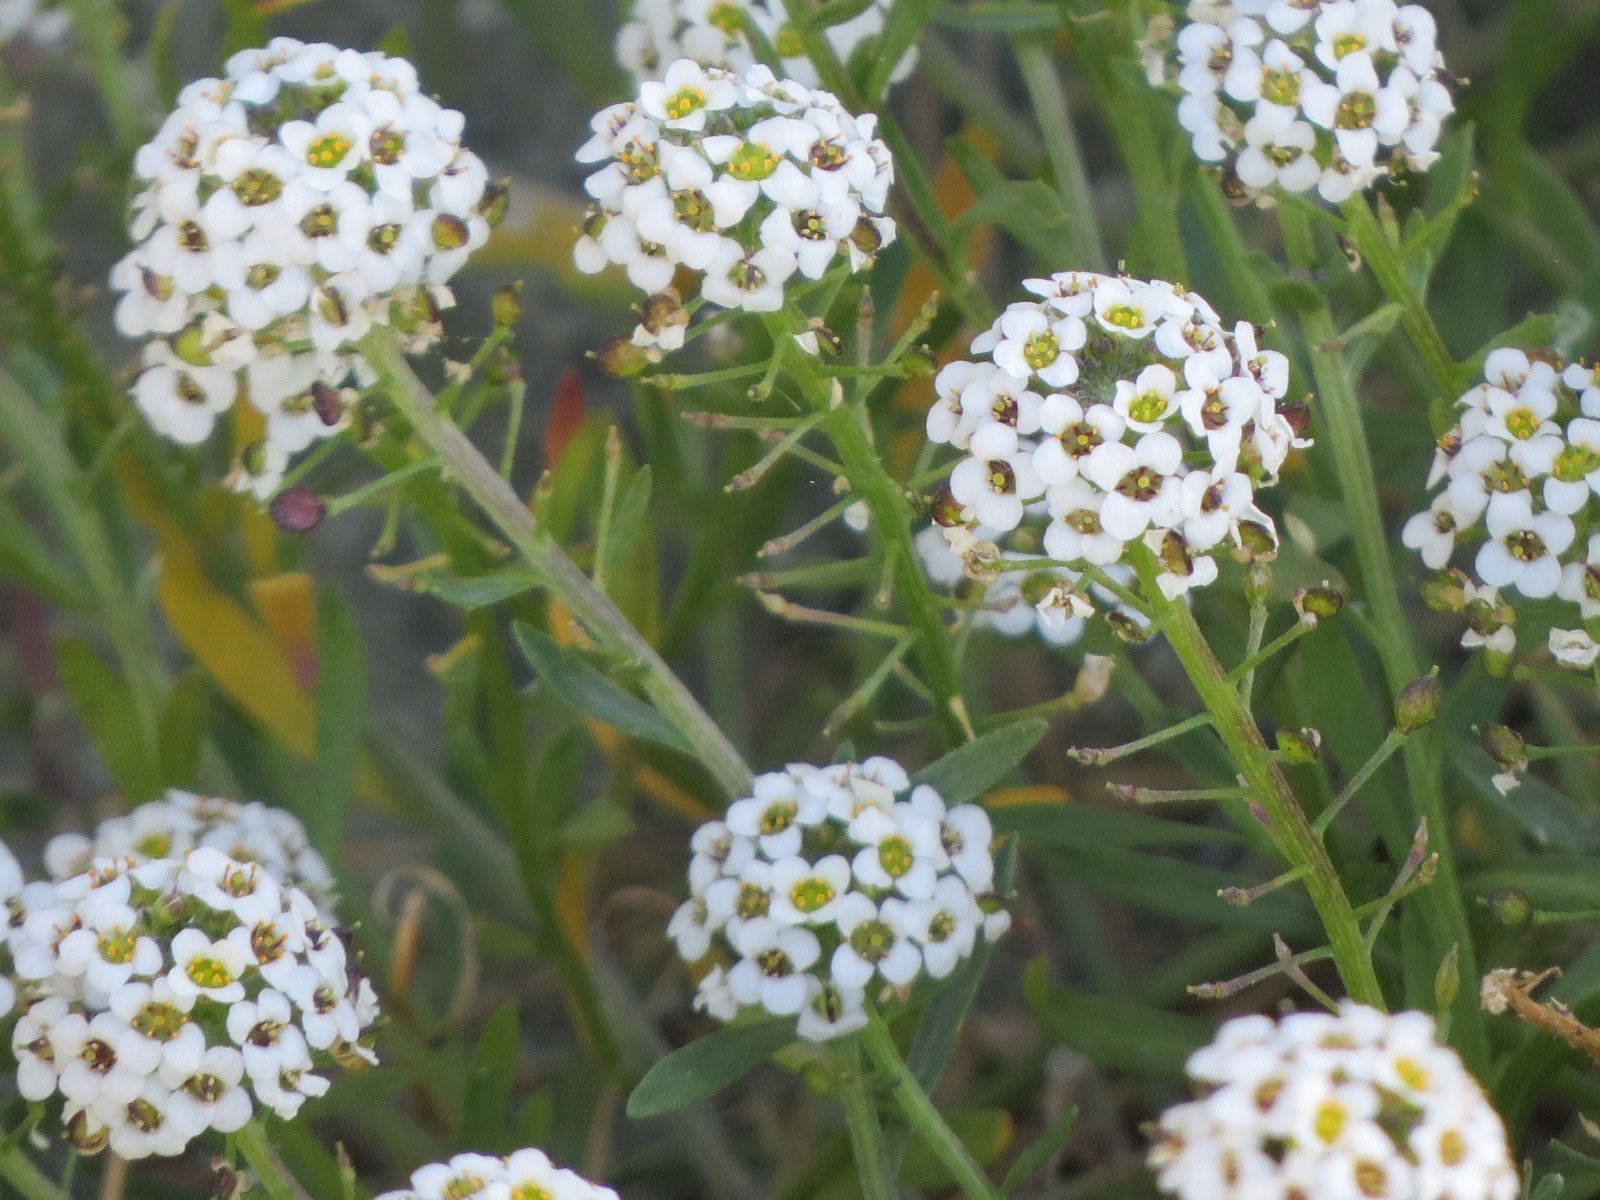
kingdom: Plantae
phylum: Tracheophyta
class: Magnoliopsida
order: Brassicales
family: Brassicaceae
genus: Lobularia
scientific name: Lobularia maritima
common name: Sweet alison
